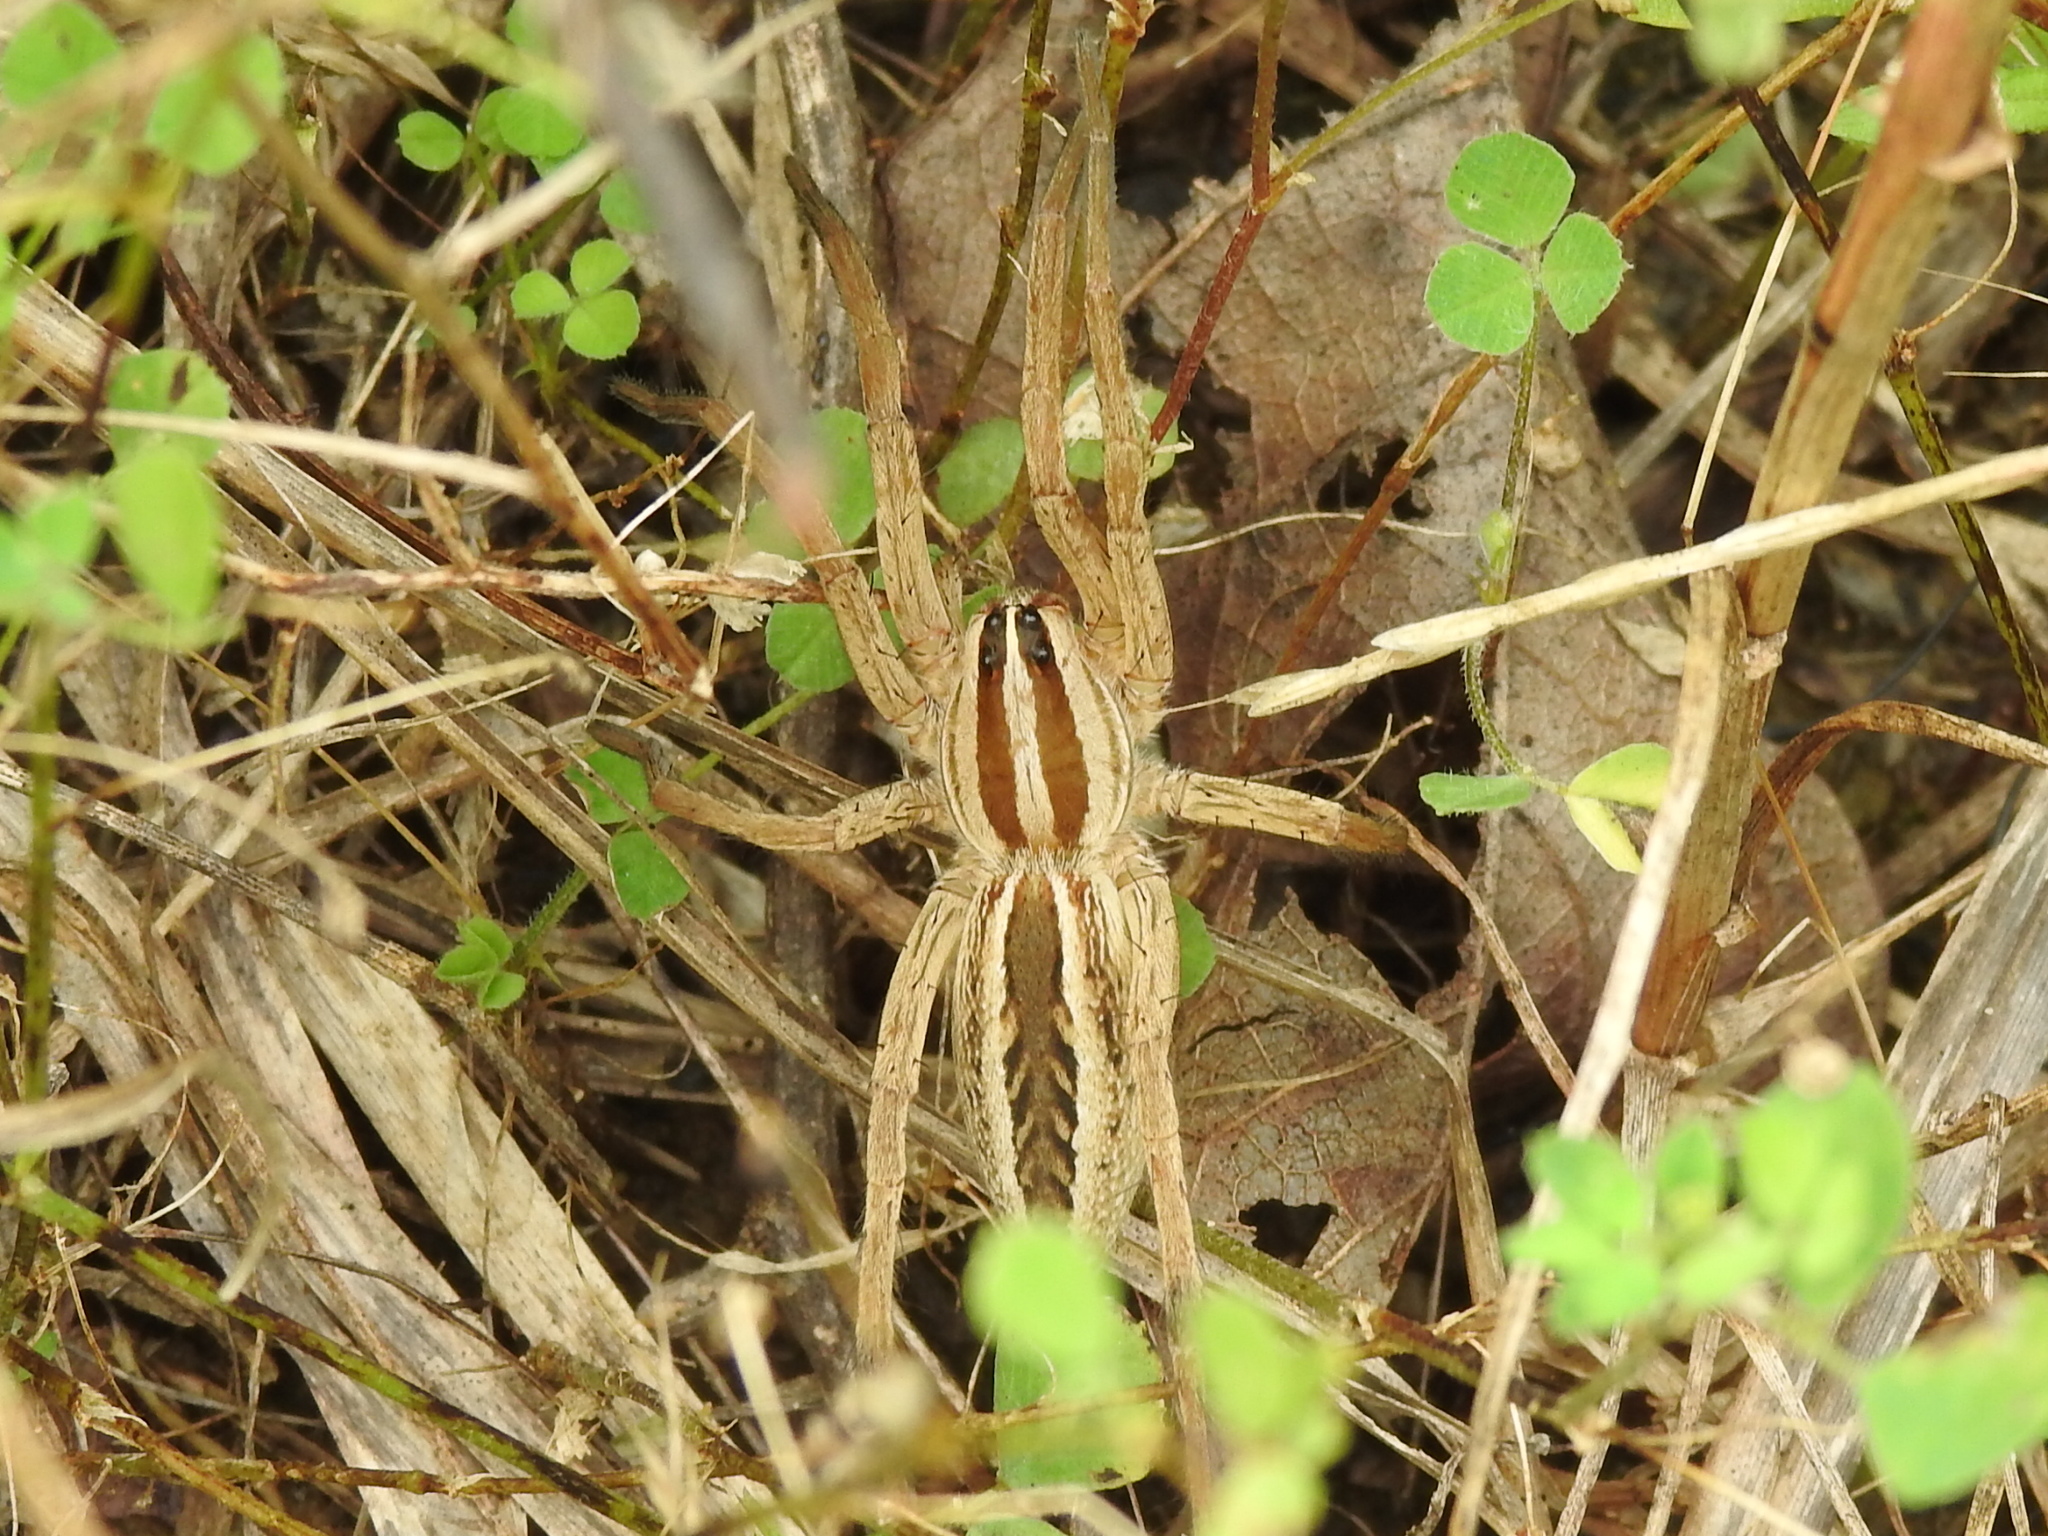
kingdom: Animalia
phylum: Arthropoda
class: Arachnida
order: Araneae
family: Lycosidae
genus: Rabidosa
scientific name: Rabidosa rabida
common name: Rabid wolf spider
